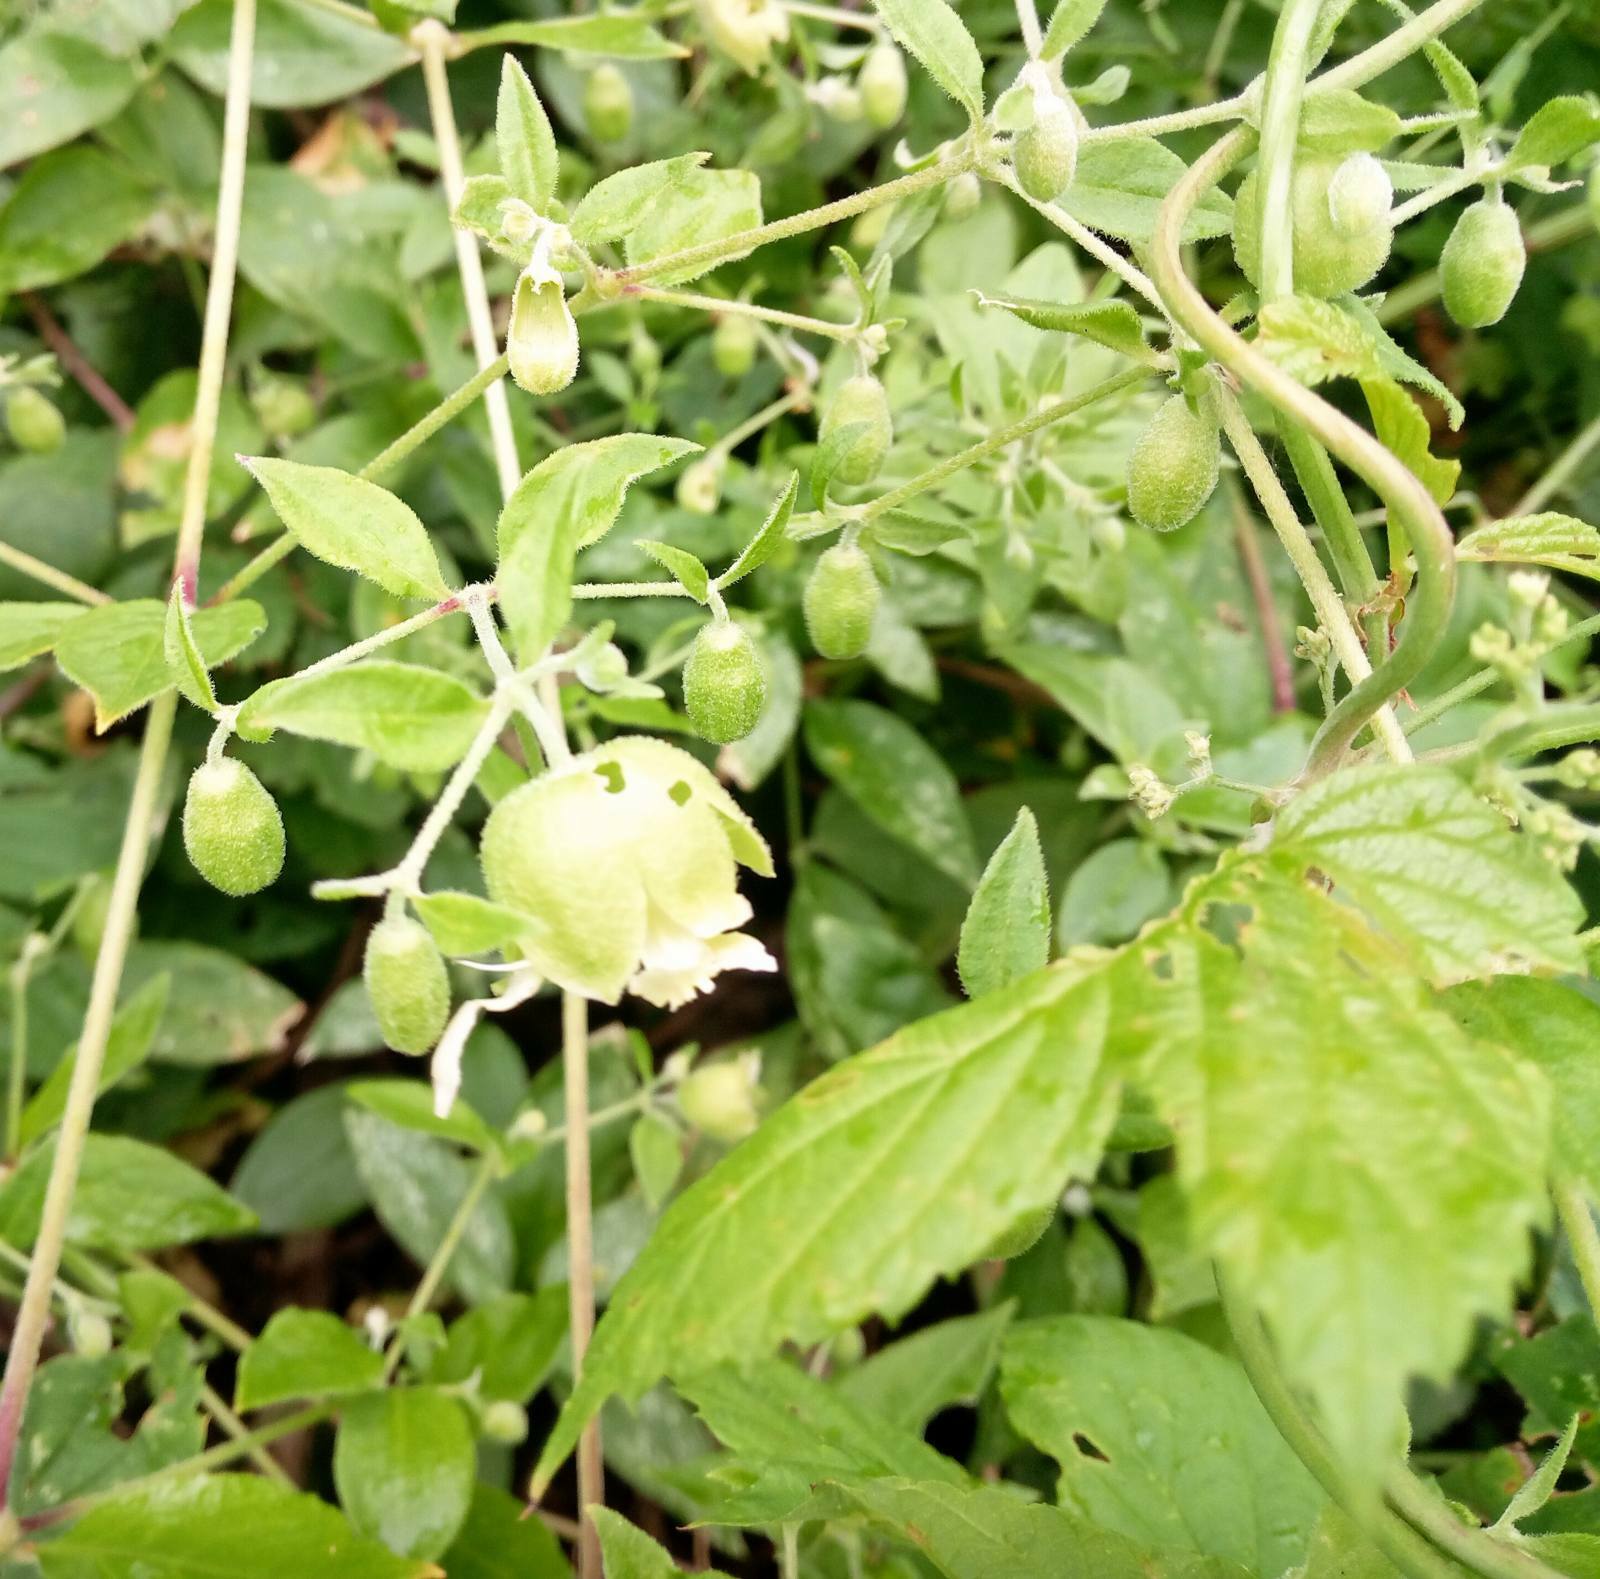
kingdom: Plantae
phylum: Tracheophyta
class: Magnoliopsida
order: Caryophyllales
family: Caryophyllaceae
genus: Silene
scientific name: Silene baccifera
